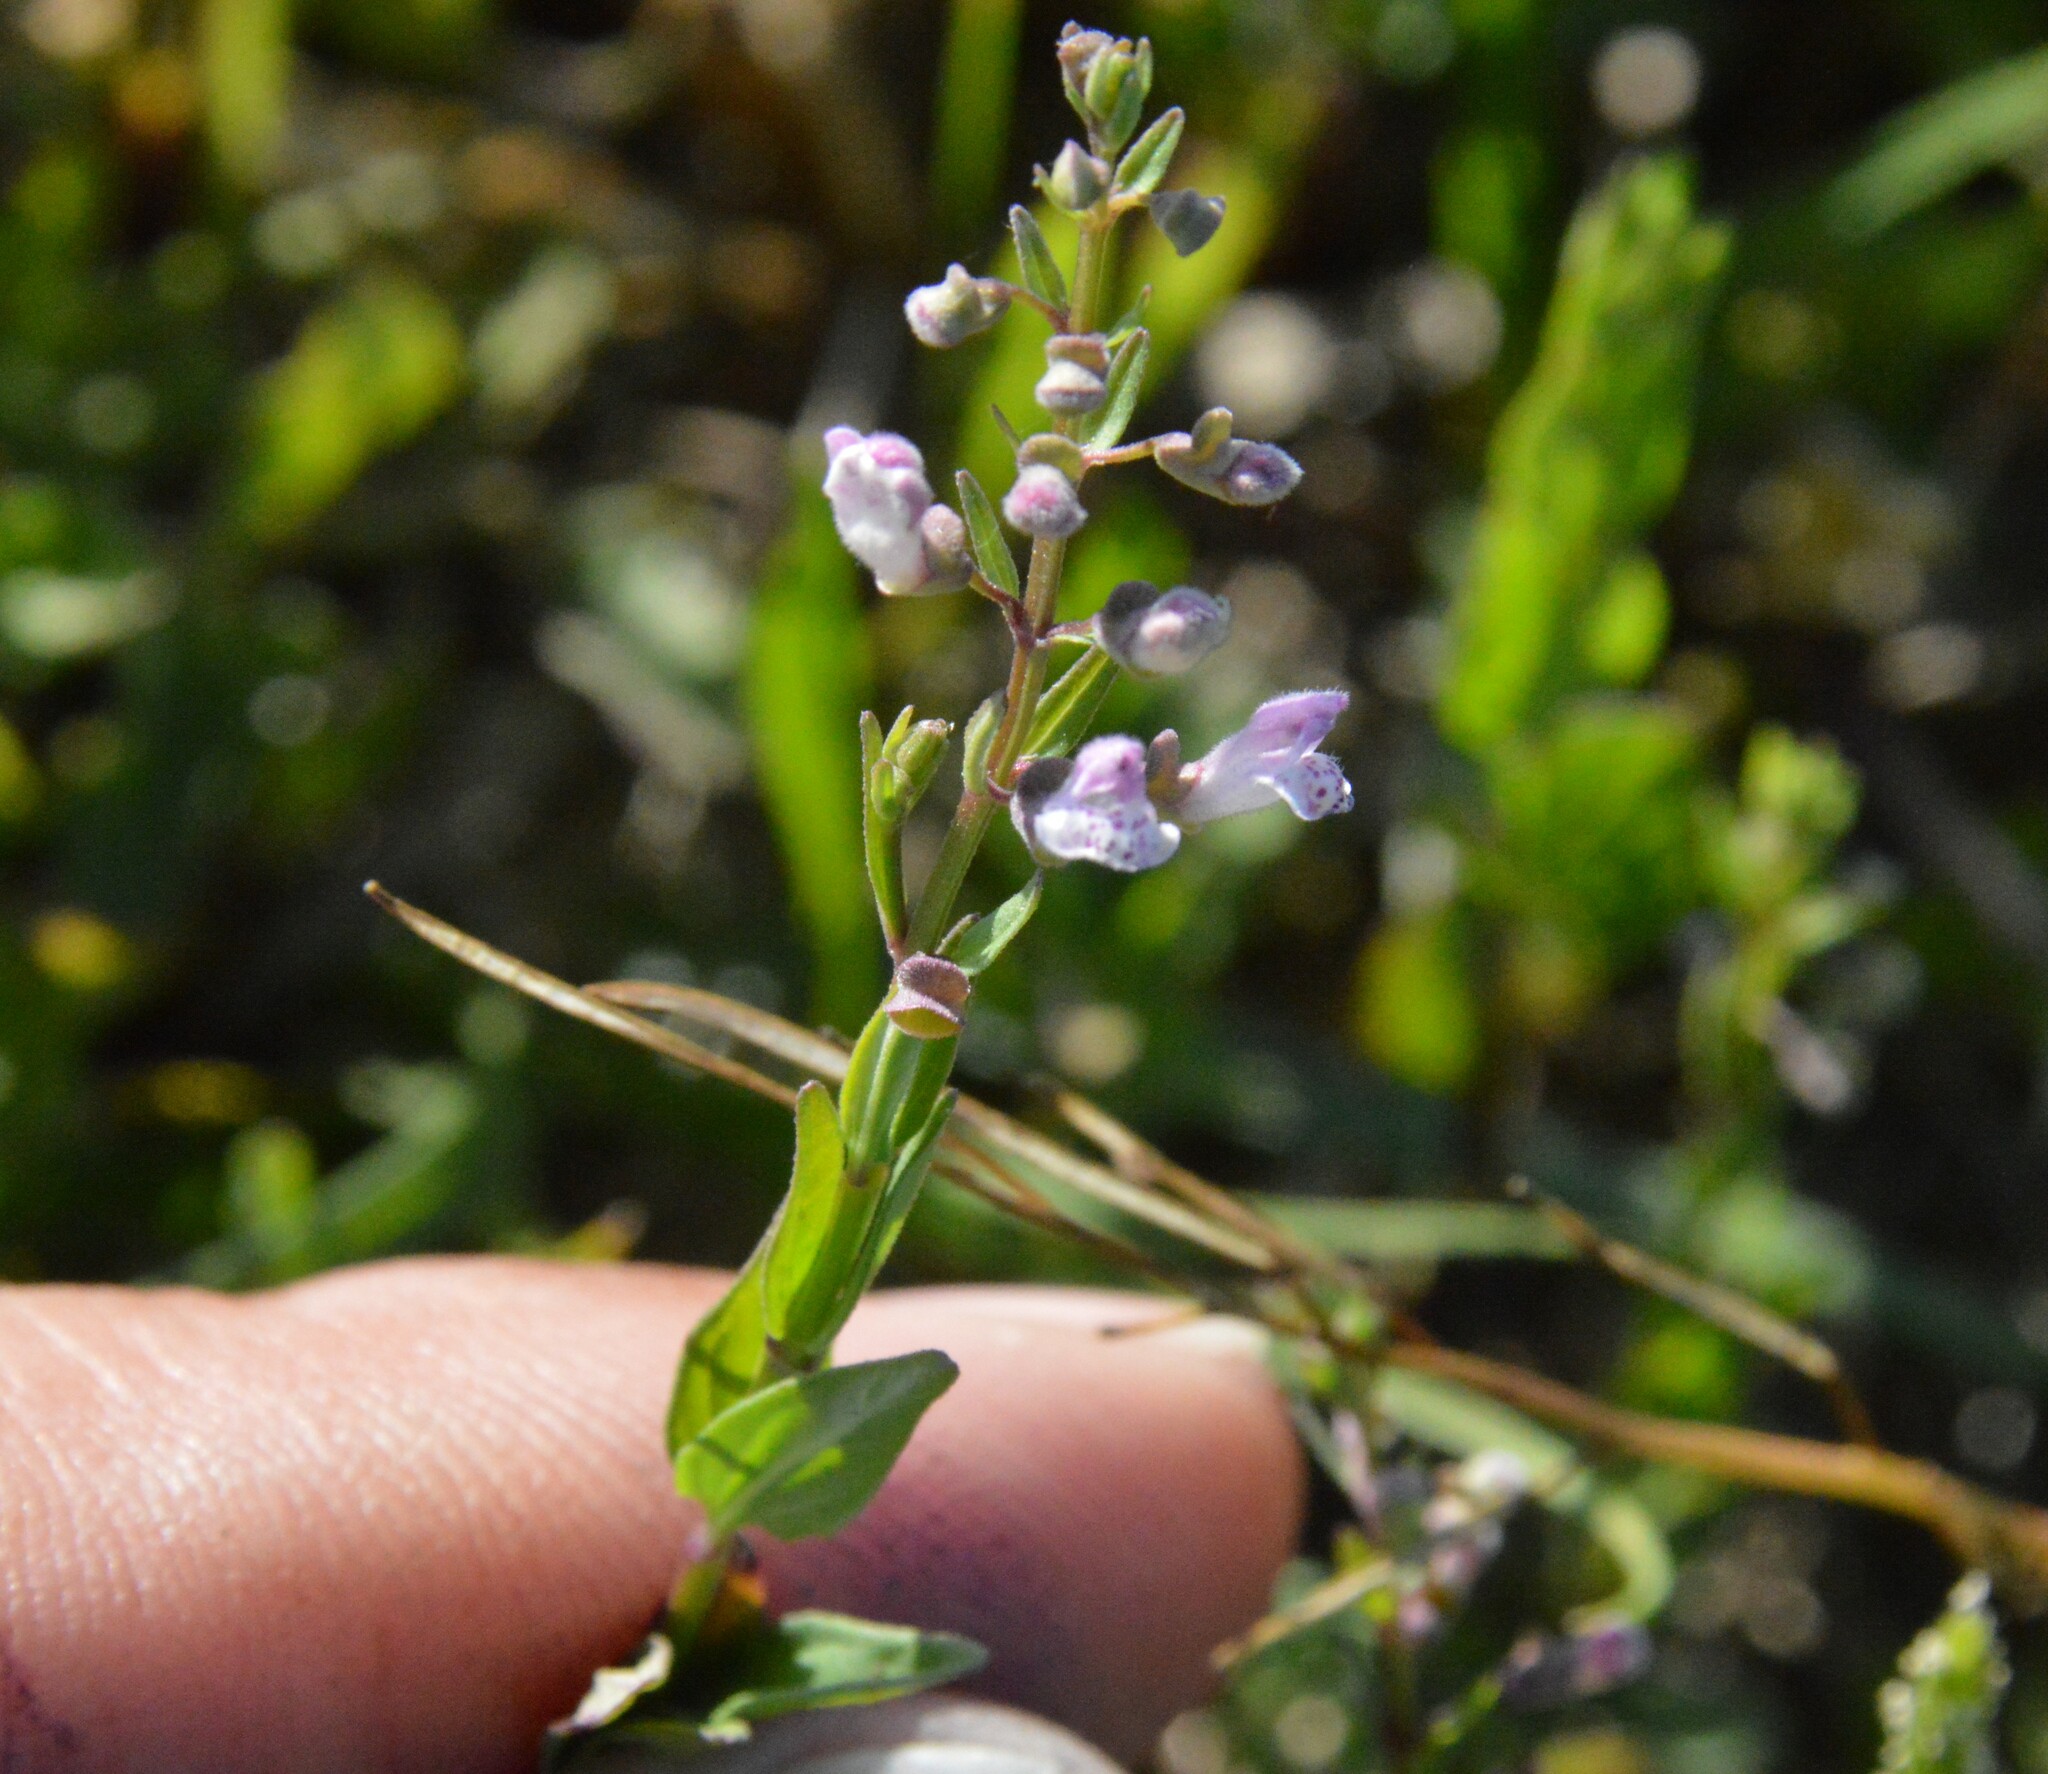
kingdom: Plantae
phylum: Tracheophyta
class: Magnoliopsida
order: Lamiales
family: Lamiaceae
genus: Scutellaria
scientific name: Scutellaria racemosa
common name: South american skullcap
